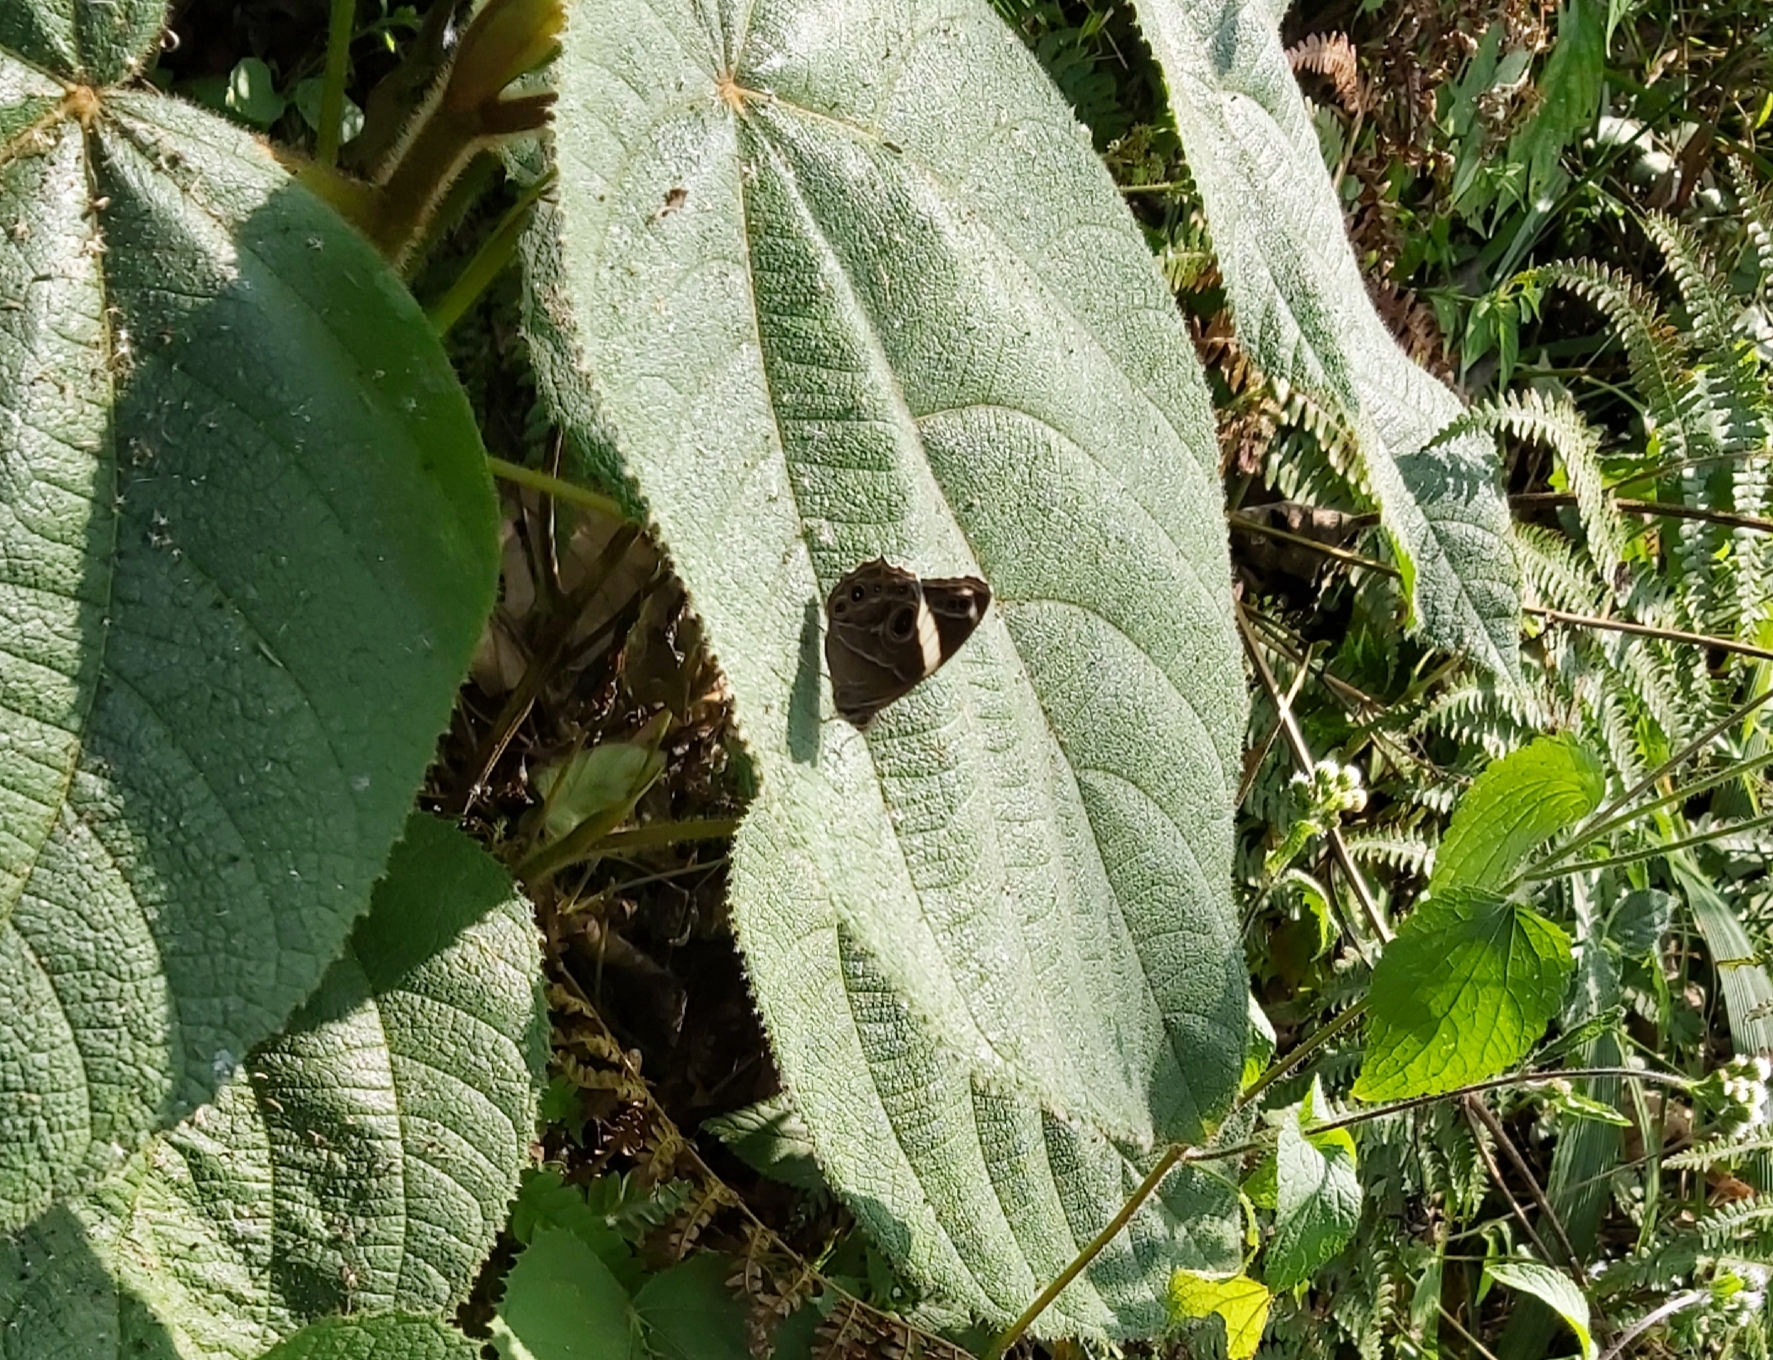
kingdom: Animalia
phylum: Arthropoda
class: Insecta
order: Lepidoptera
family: Nymphalidae
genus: Lethe
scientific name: Lethe confusa
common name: Banded treebrown
